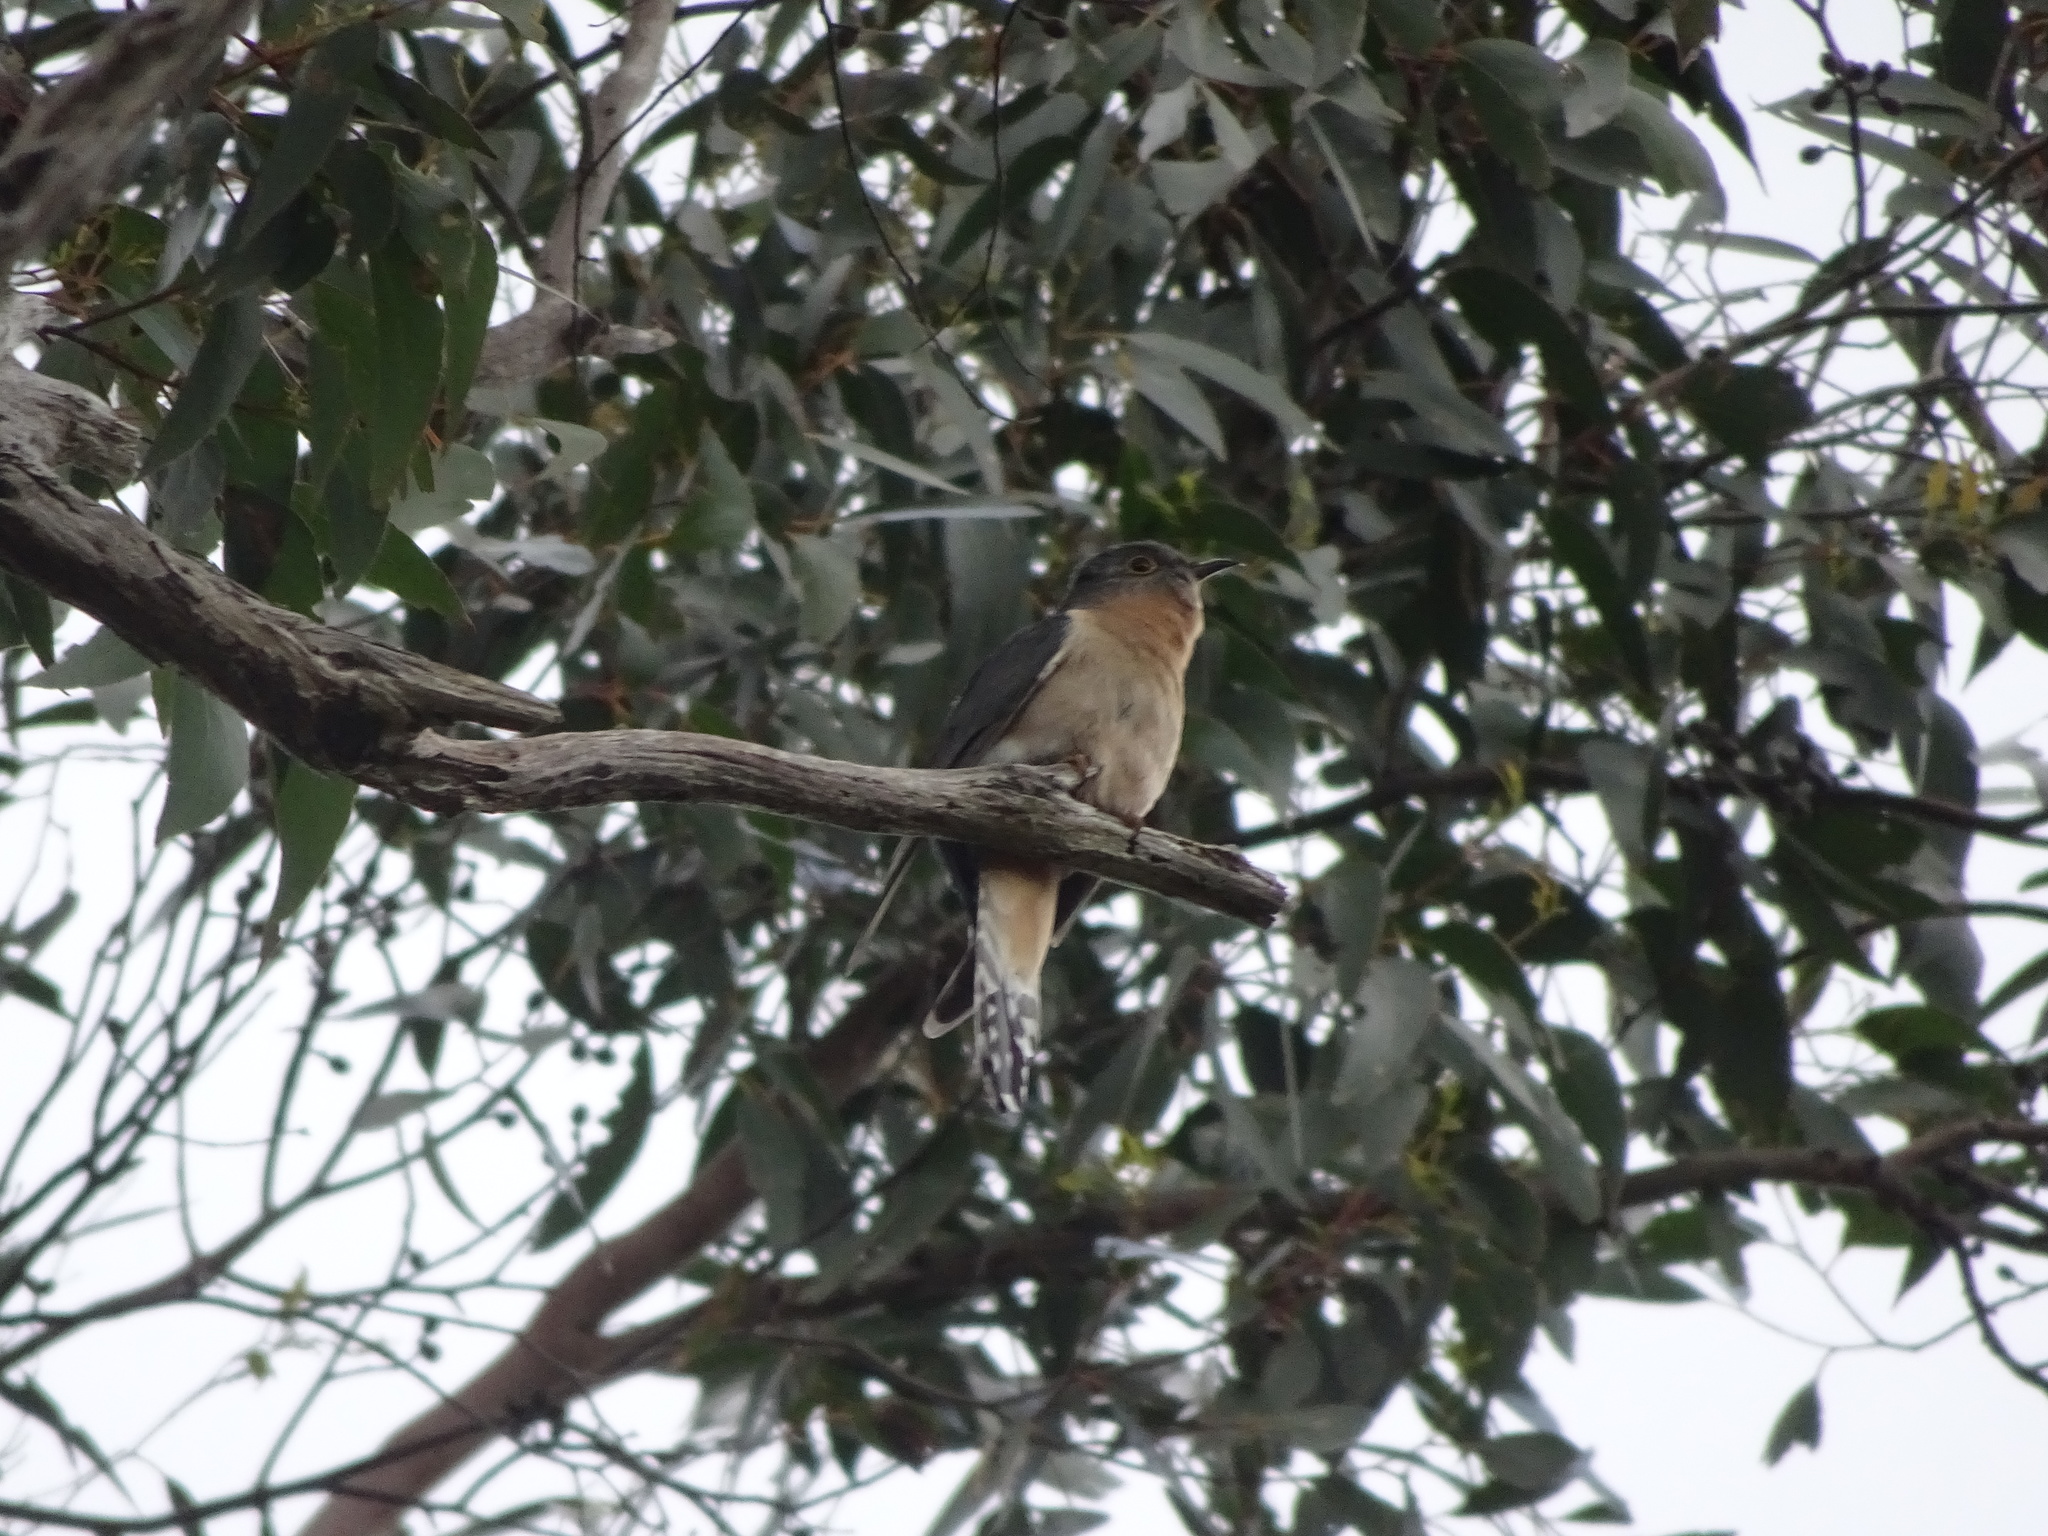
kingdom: Animalia
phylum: Chordata
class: Aves
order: Cuculiformes
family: Cuculidae
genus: Cacomantis
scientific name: Cacomantis flabelliformis
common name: Fan-tailed cuckoo
